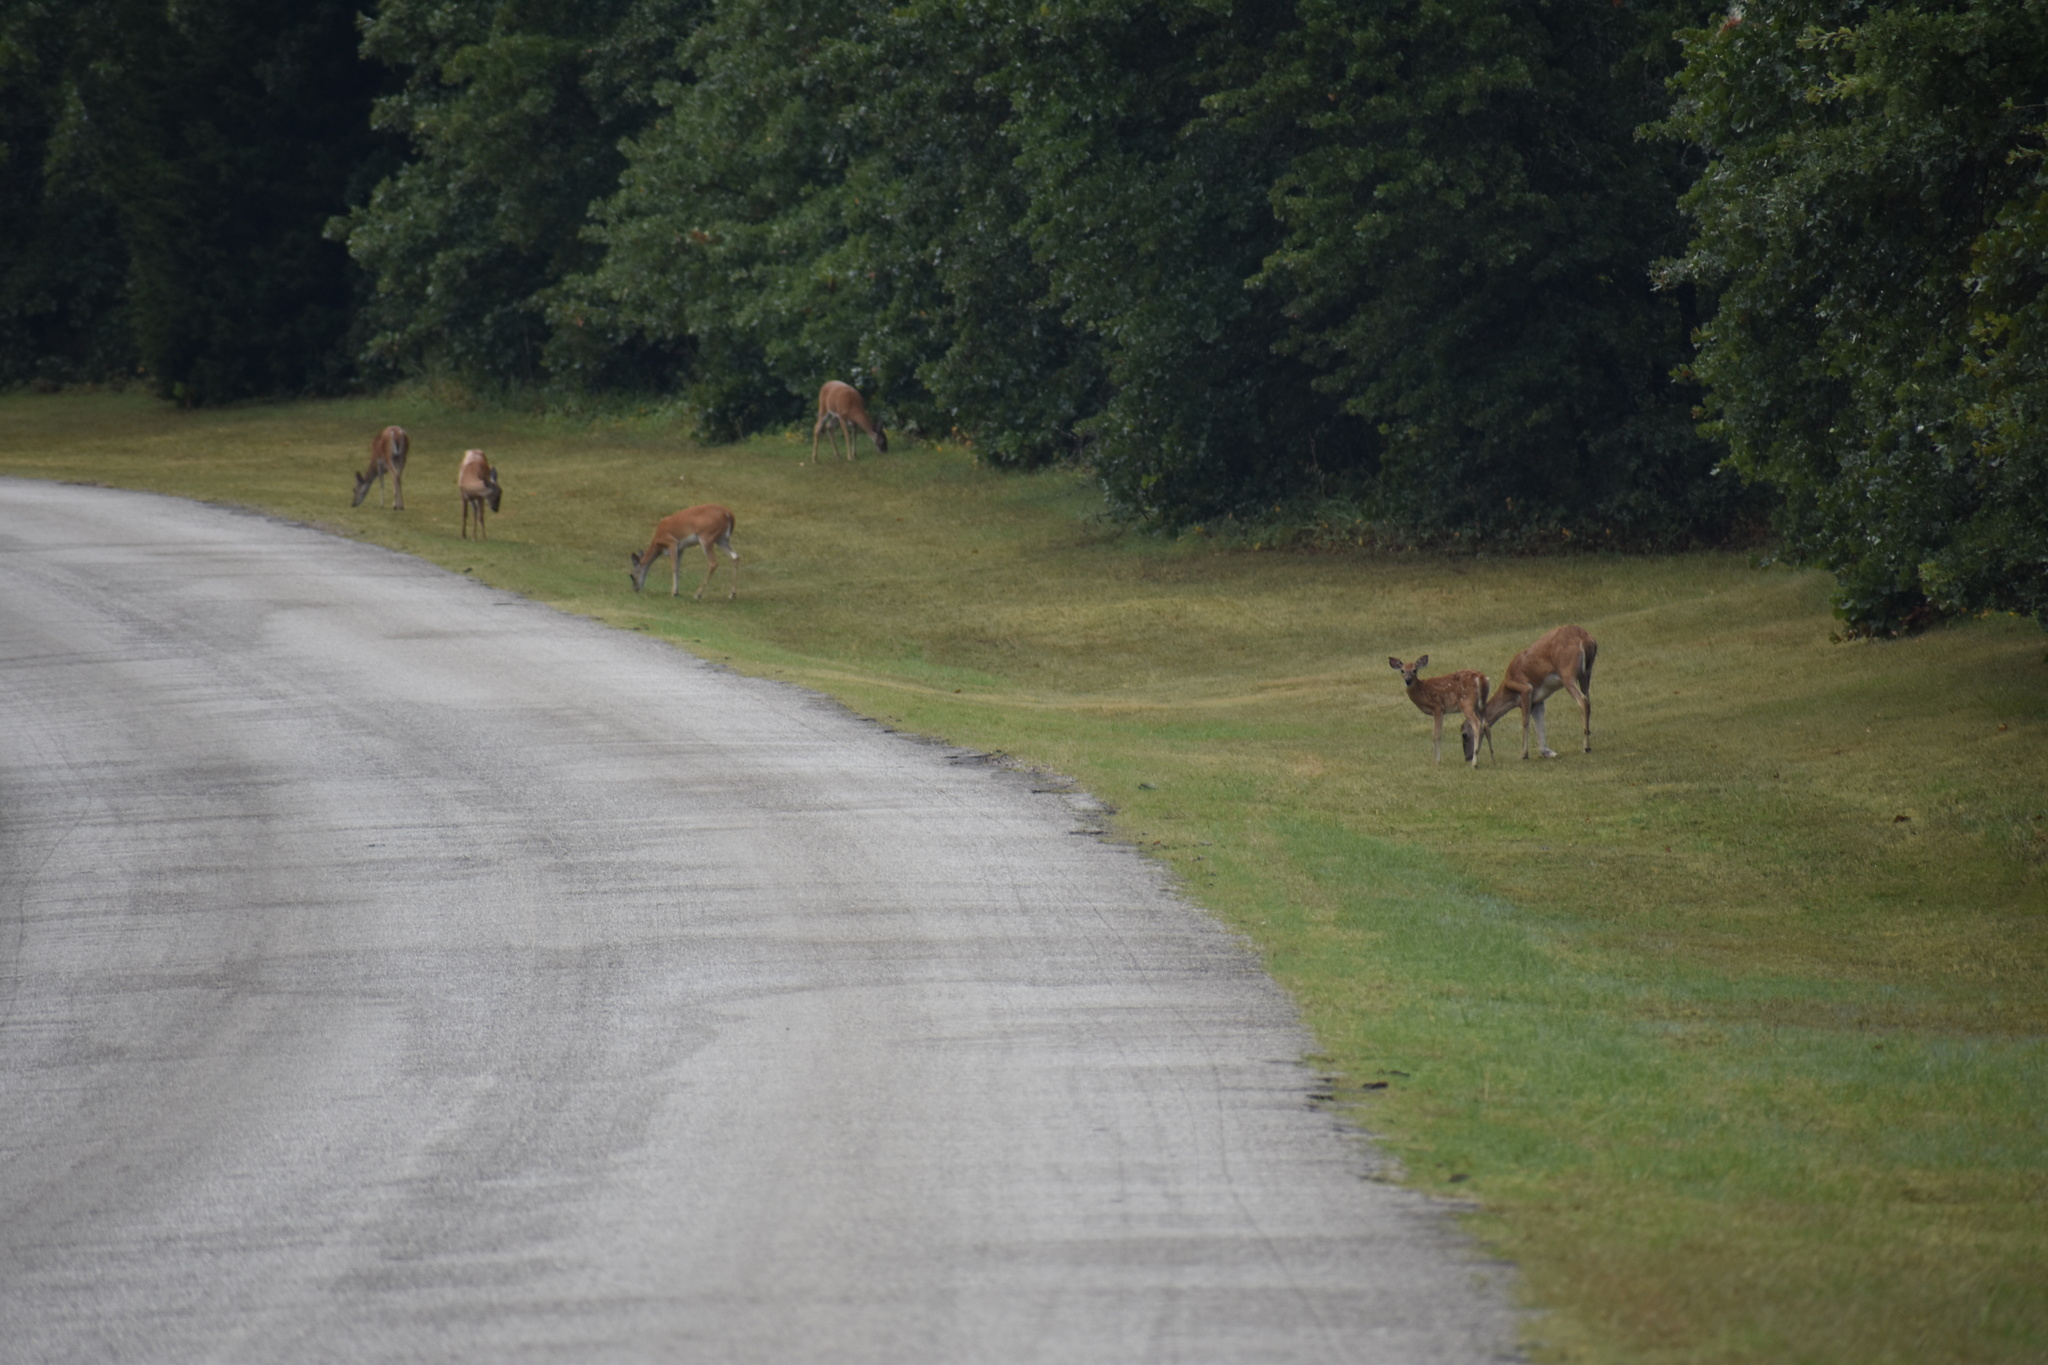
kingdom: Animalia
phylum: Chordata
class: Mammalia
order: Artiodactyla
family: Cervidae
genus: Odocoileus
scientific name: Odocoileus virginianus
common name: White-tailed deer
